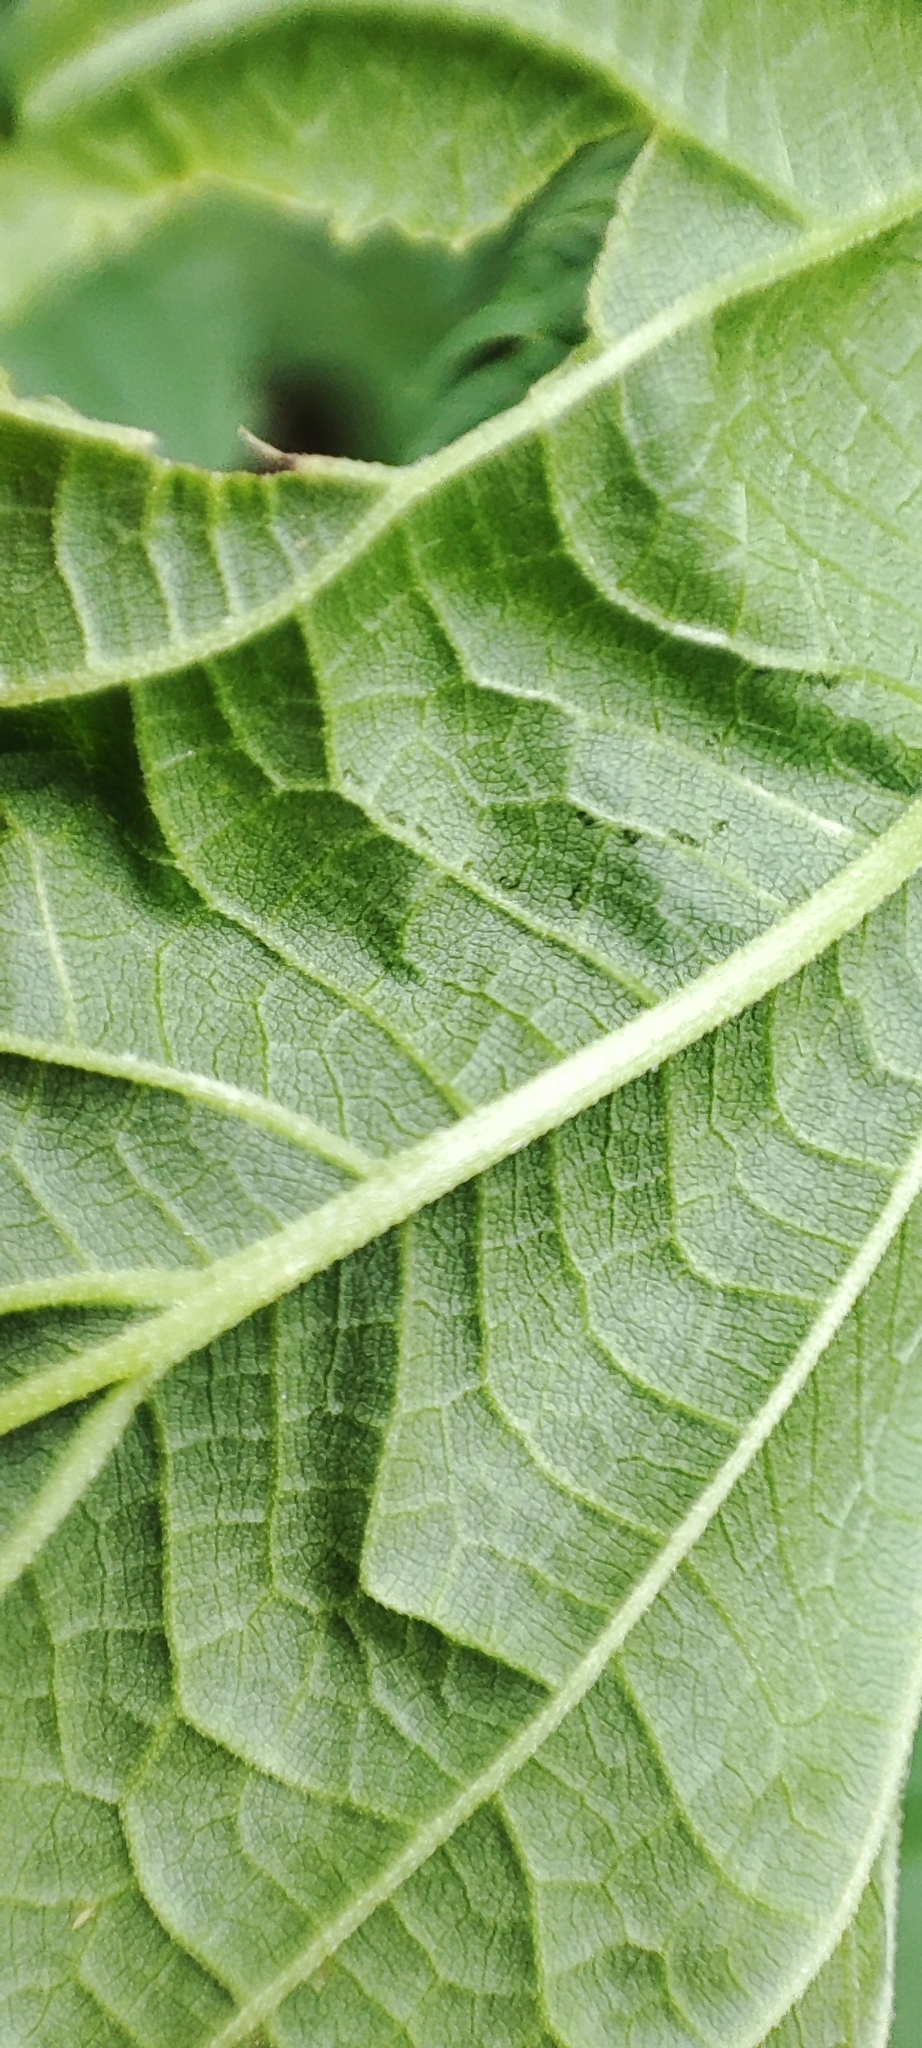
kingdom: Plantae
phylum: Tracheophyta
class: Magnoliopsida
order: Rosales
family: Urticaceae
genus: Urtica
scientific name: Urtica dioica
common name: Common nettle
